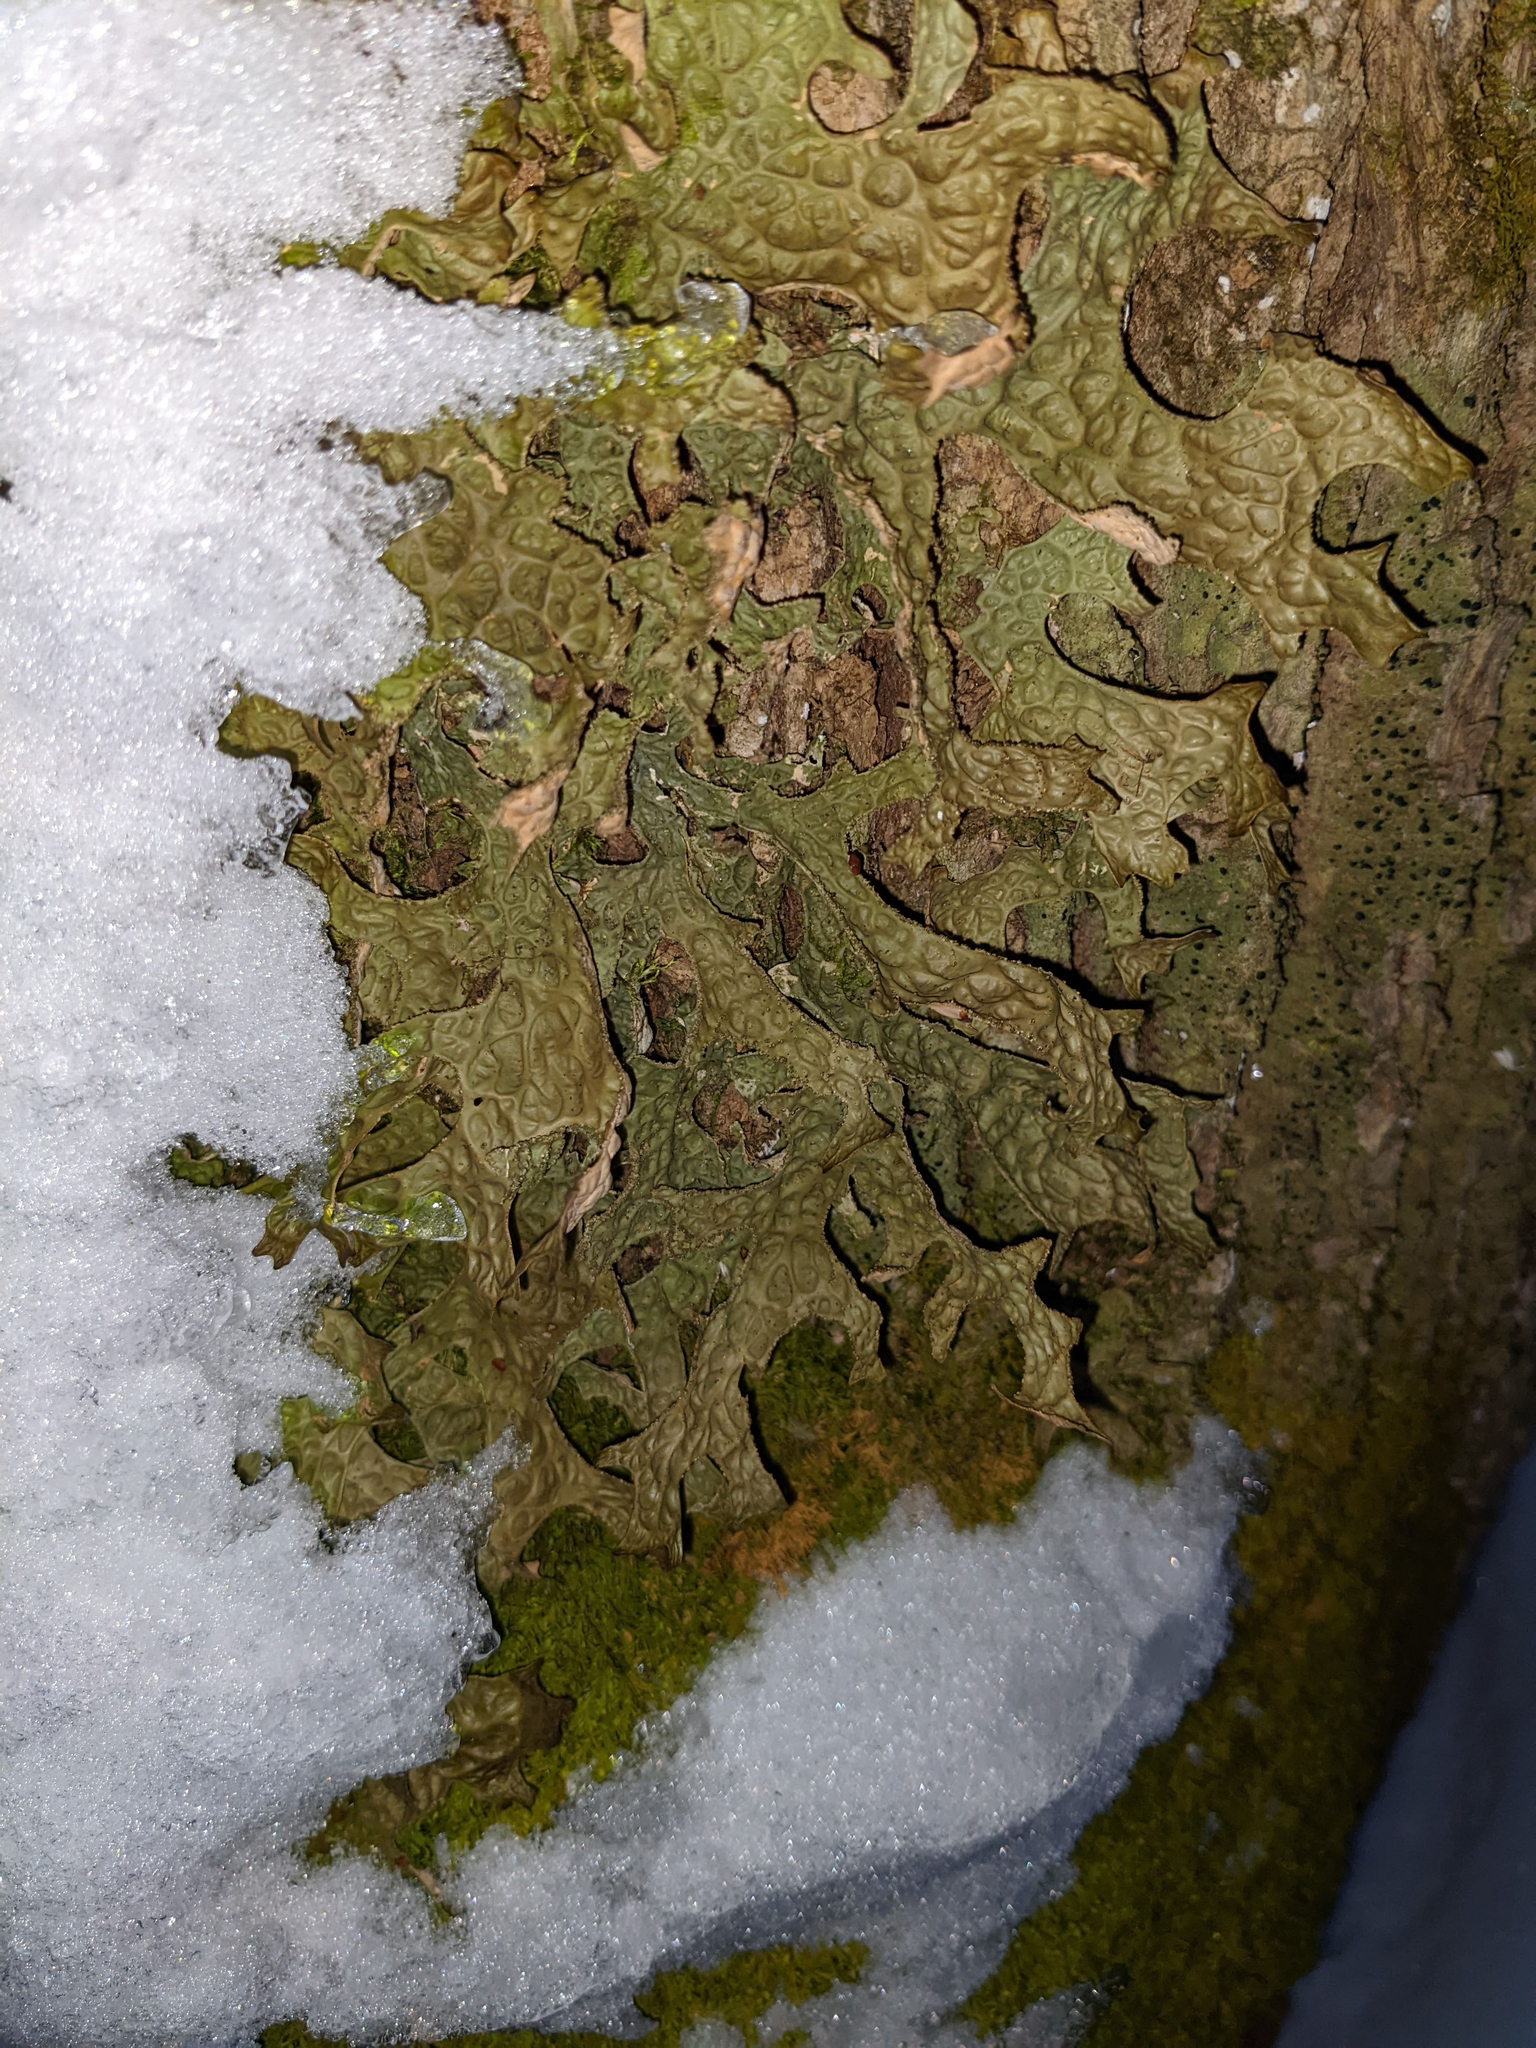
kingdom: Fungi
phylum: Ascomycota
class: Lecanoromycetes
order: Peltigerales
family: Lobariaceae
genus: Lobaria
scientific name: Lobaria pulmonaria
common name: Lungwort
